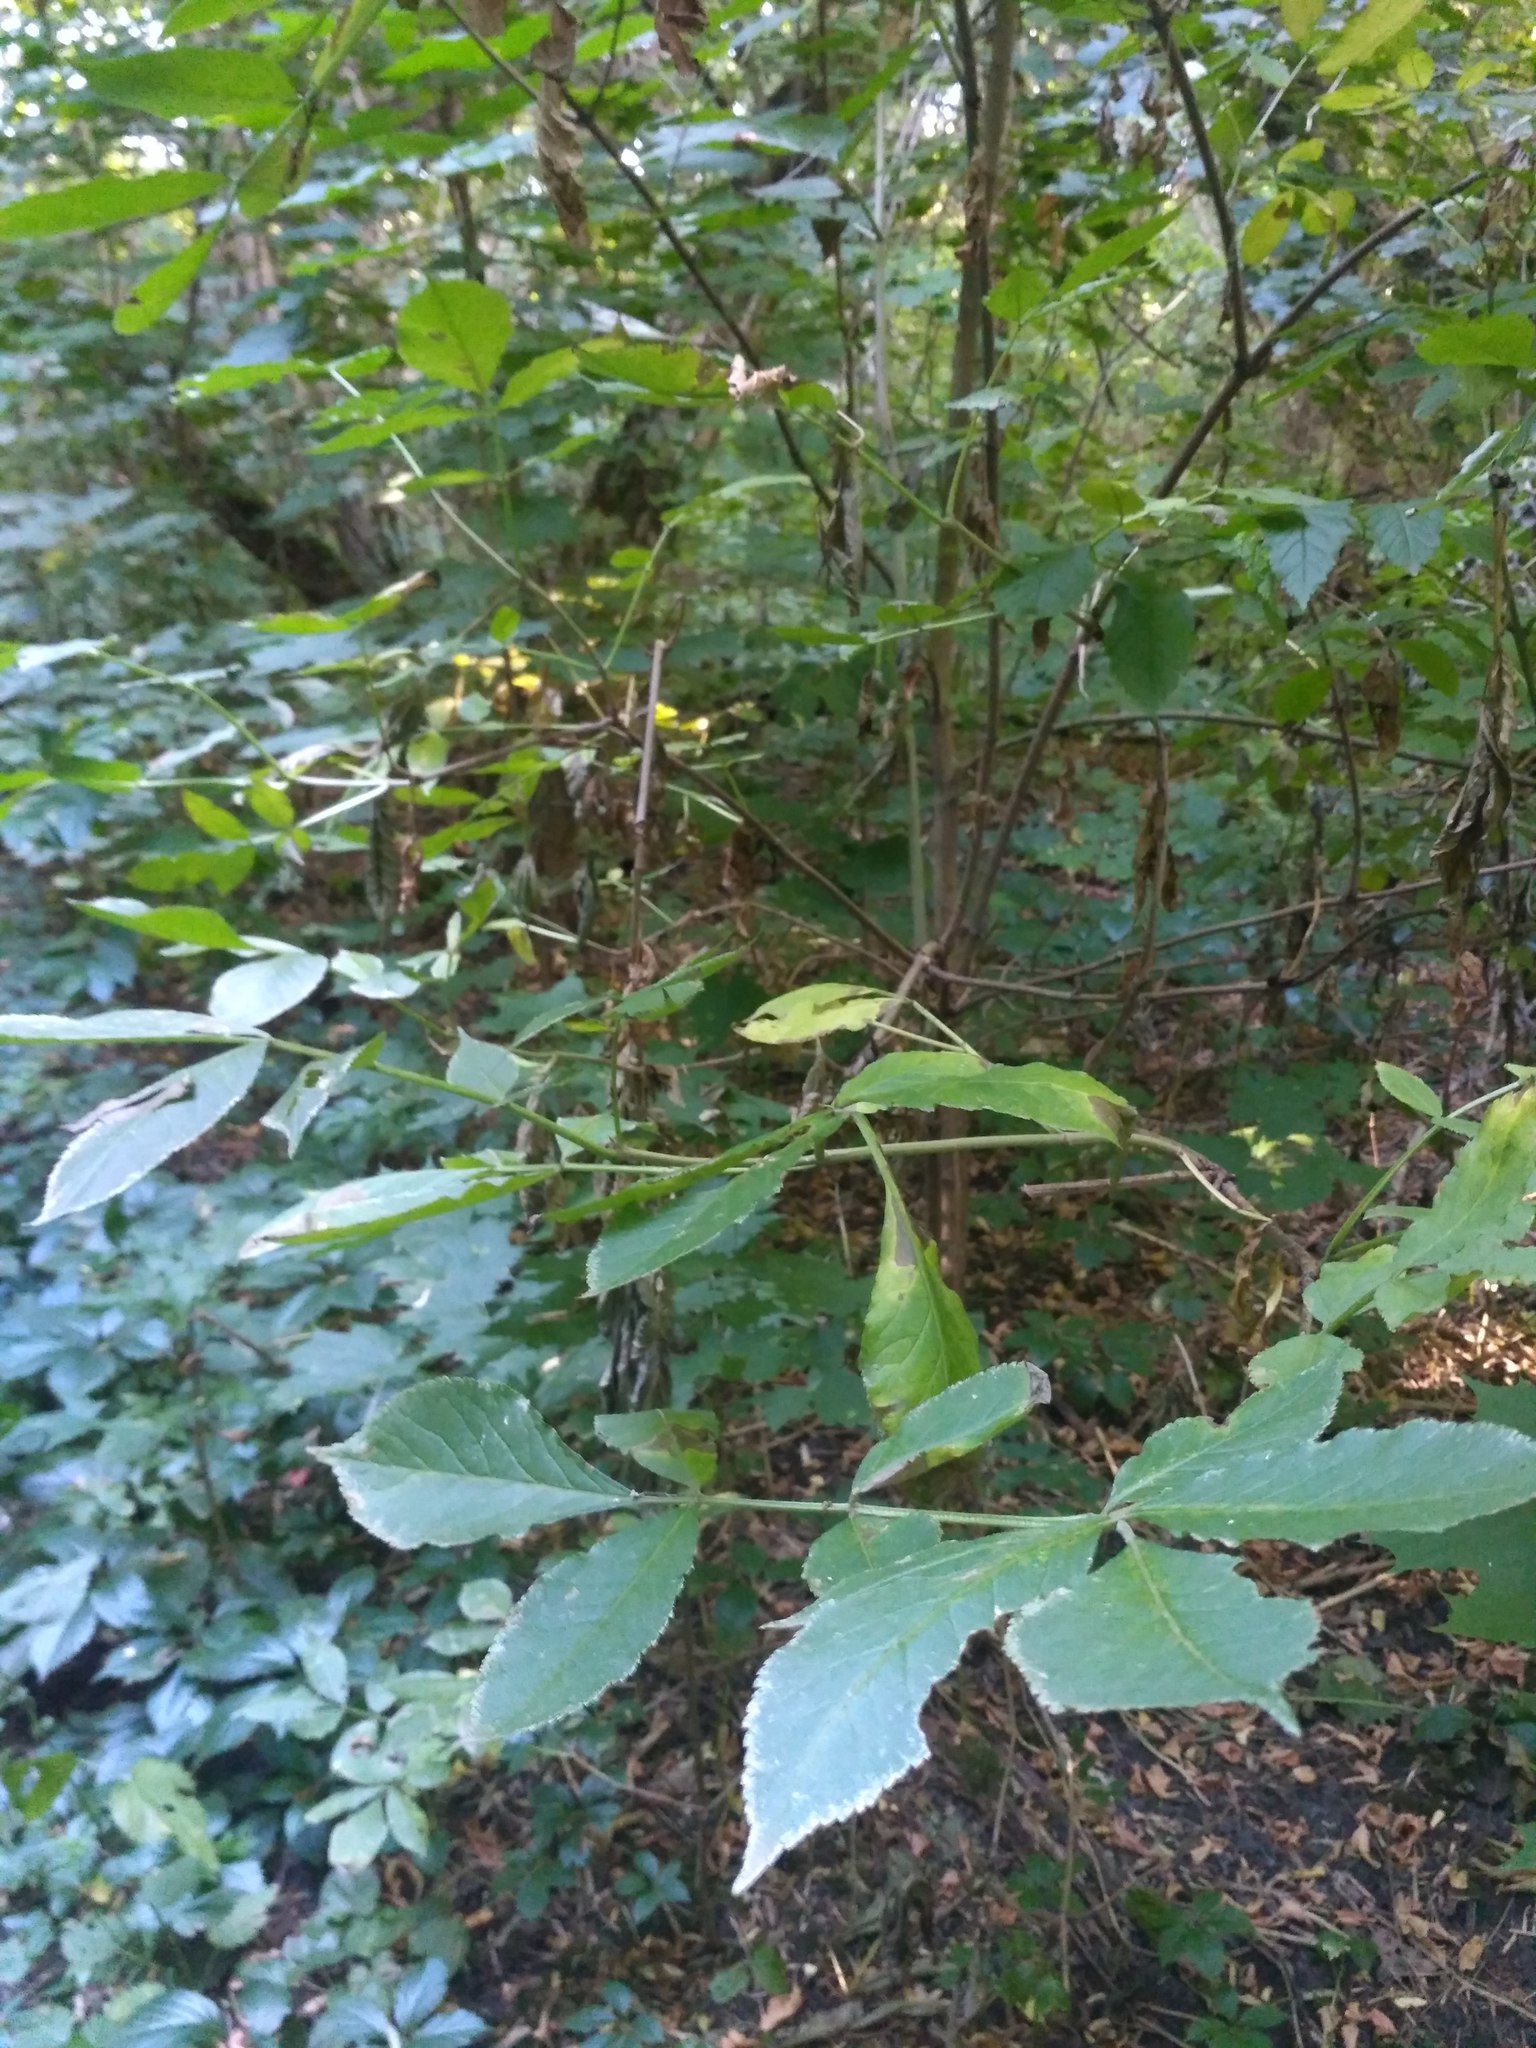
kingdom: Plantae
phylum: Tracheophyta
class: Magnoliopsida
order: Dipsacales
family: Viburnaceae
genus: Sambucus
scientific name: Sambucus nigra
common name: Elder
